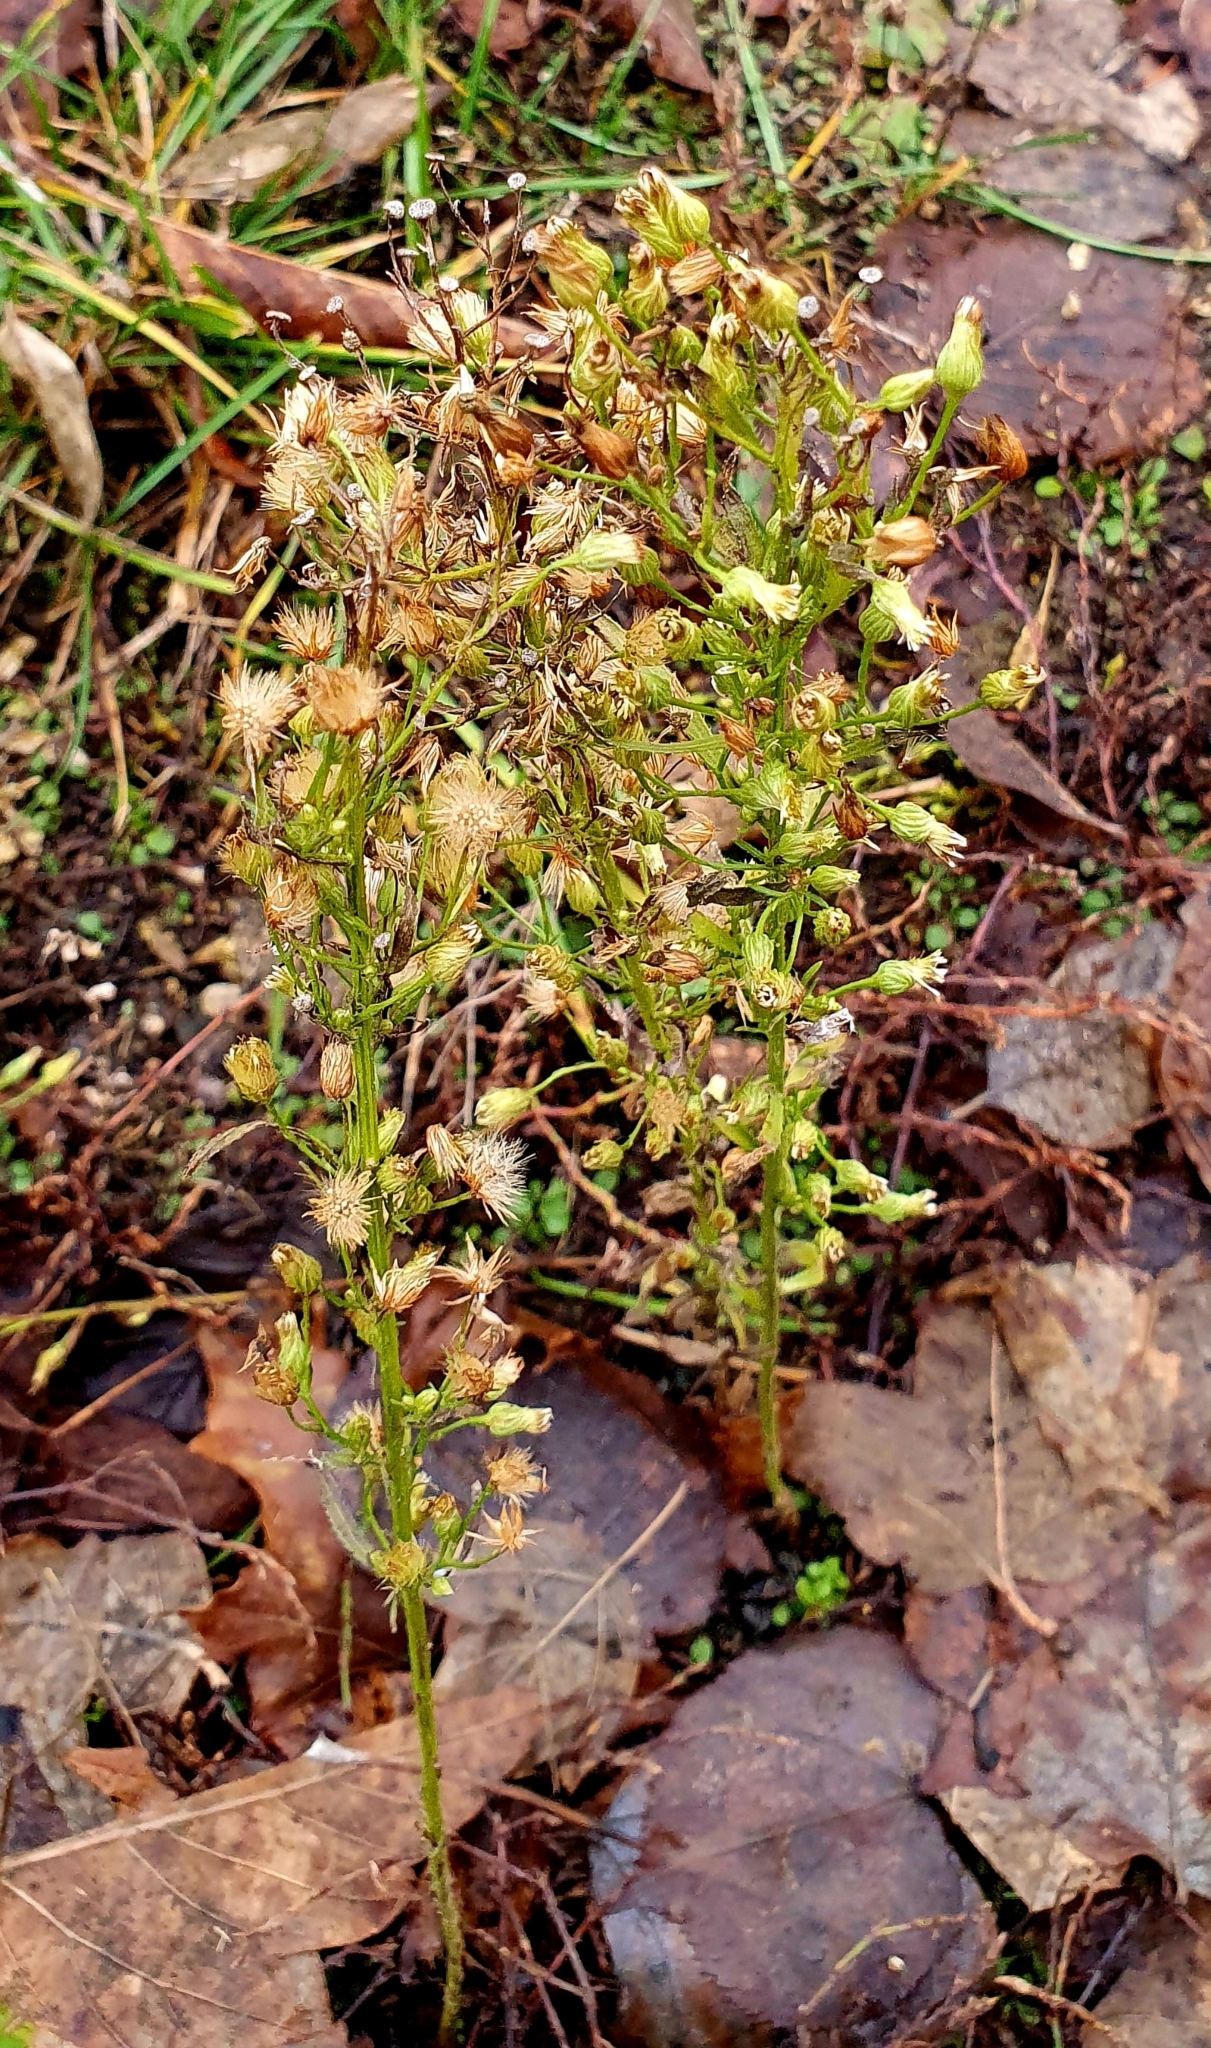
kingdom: Plantae
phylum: Tracheophyta
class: Magnoliopsida
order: Asterales
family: Asteraceae
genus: Erigeron
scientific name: Erigeron canadensis
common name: Canadian fleabane
